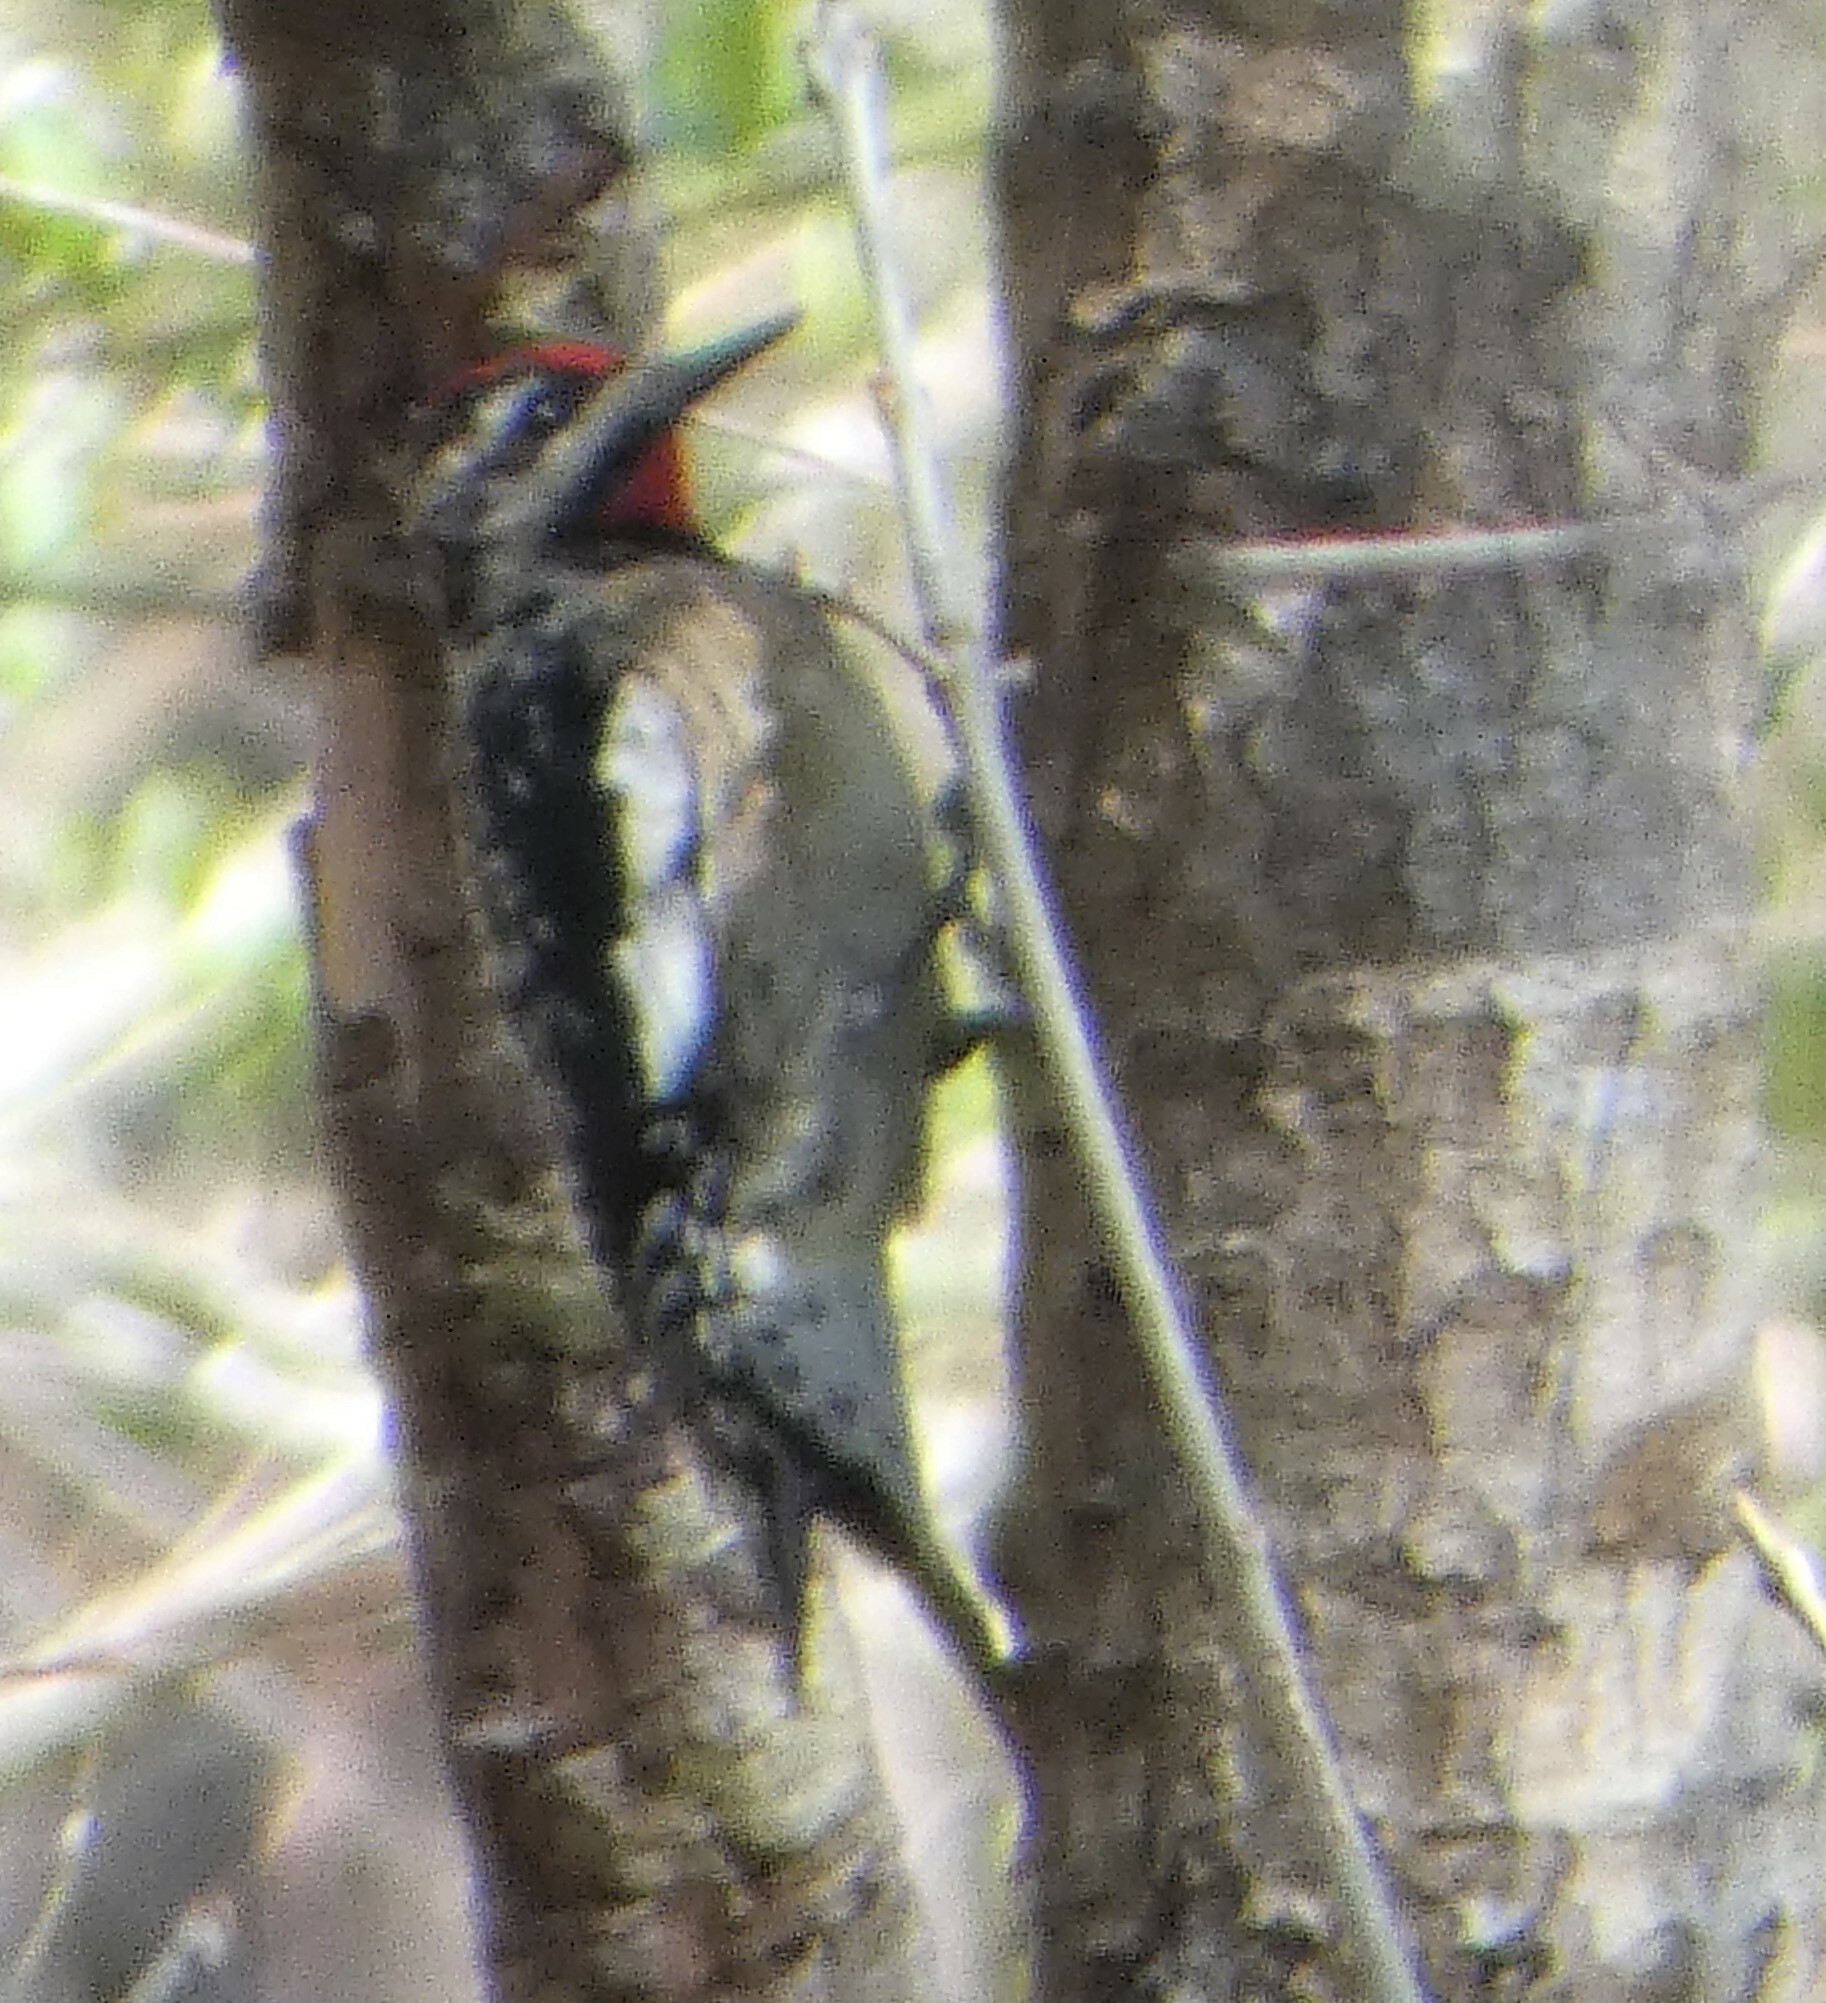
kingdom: Animalia
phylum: Chordata
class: Aves
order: Piciformes
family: Picidae
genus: Sphyrapicus
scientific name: Sphyrapicus varius
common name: Yellow-bellied sapsucker
